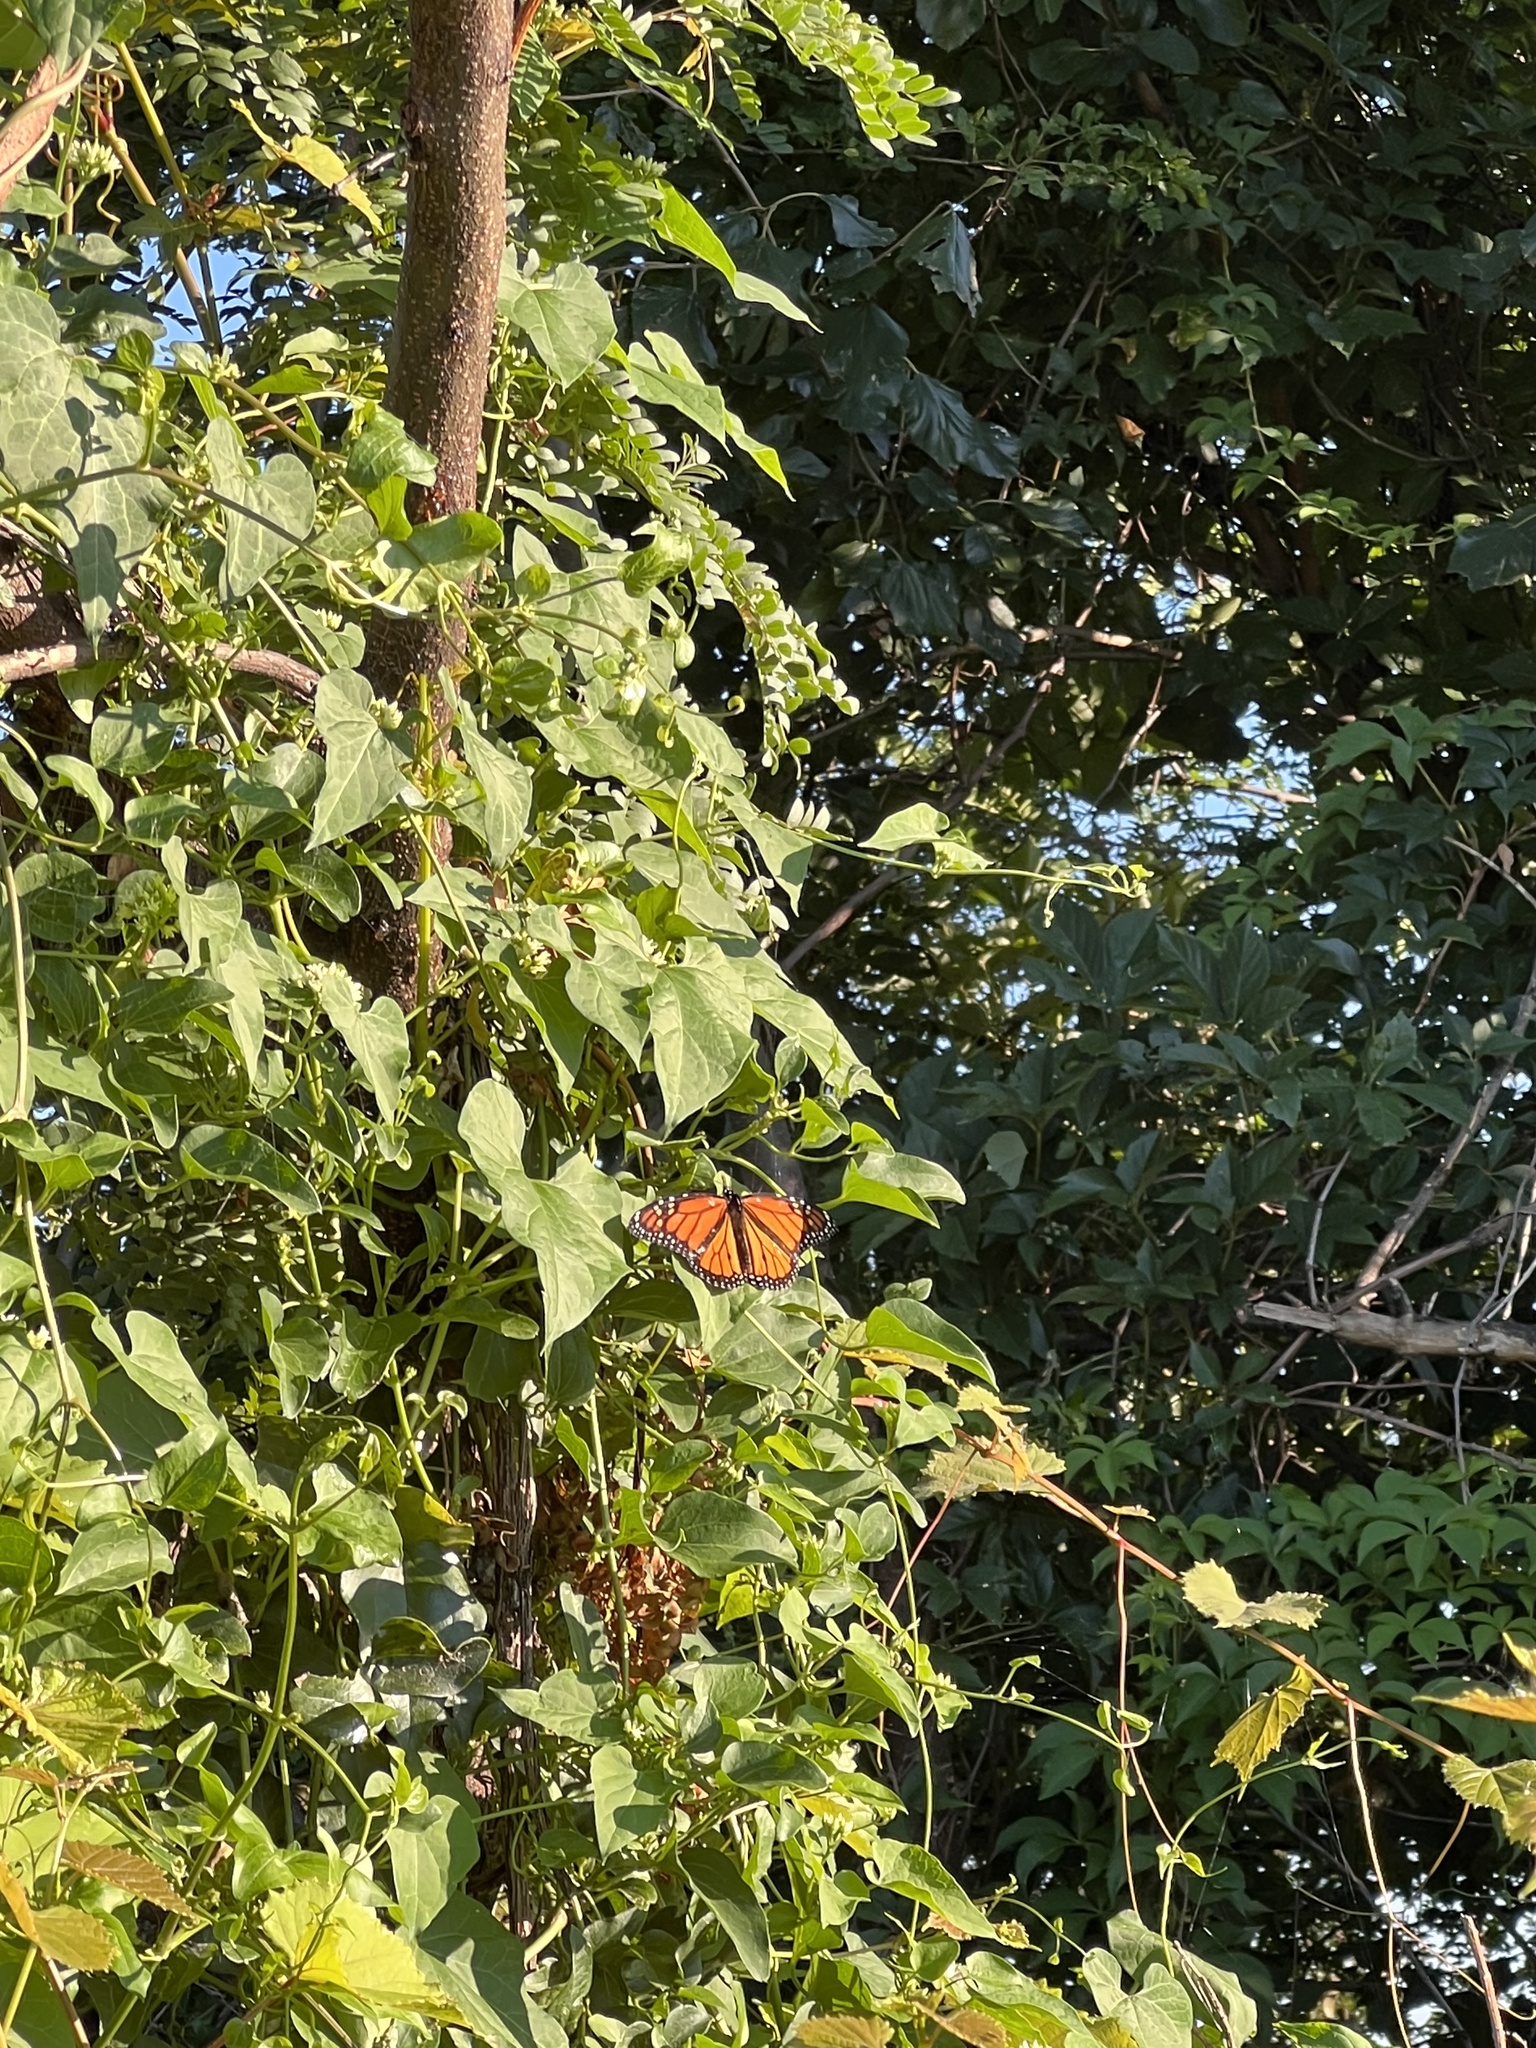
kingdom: Animalia
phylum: Arthropoda
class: Insecta
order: Lepidoptera
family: Nymphalidae
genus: Danaus
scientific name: Danaus plexippus
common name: Monarch
